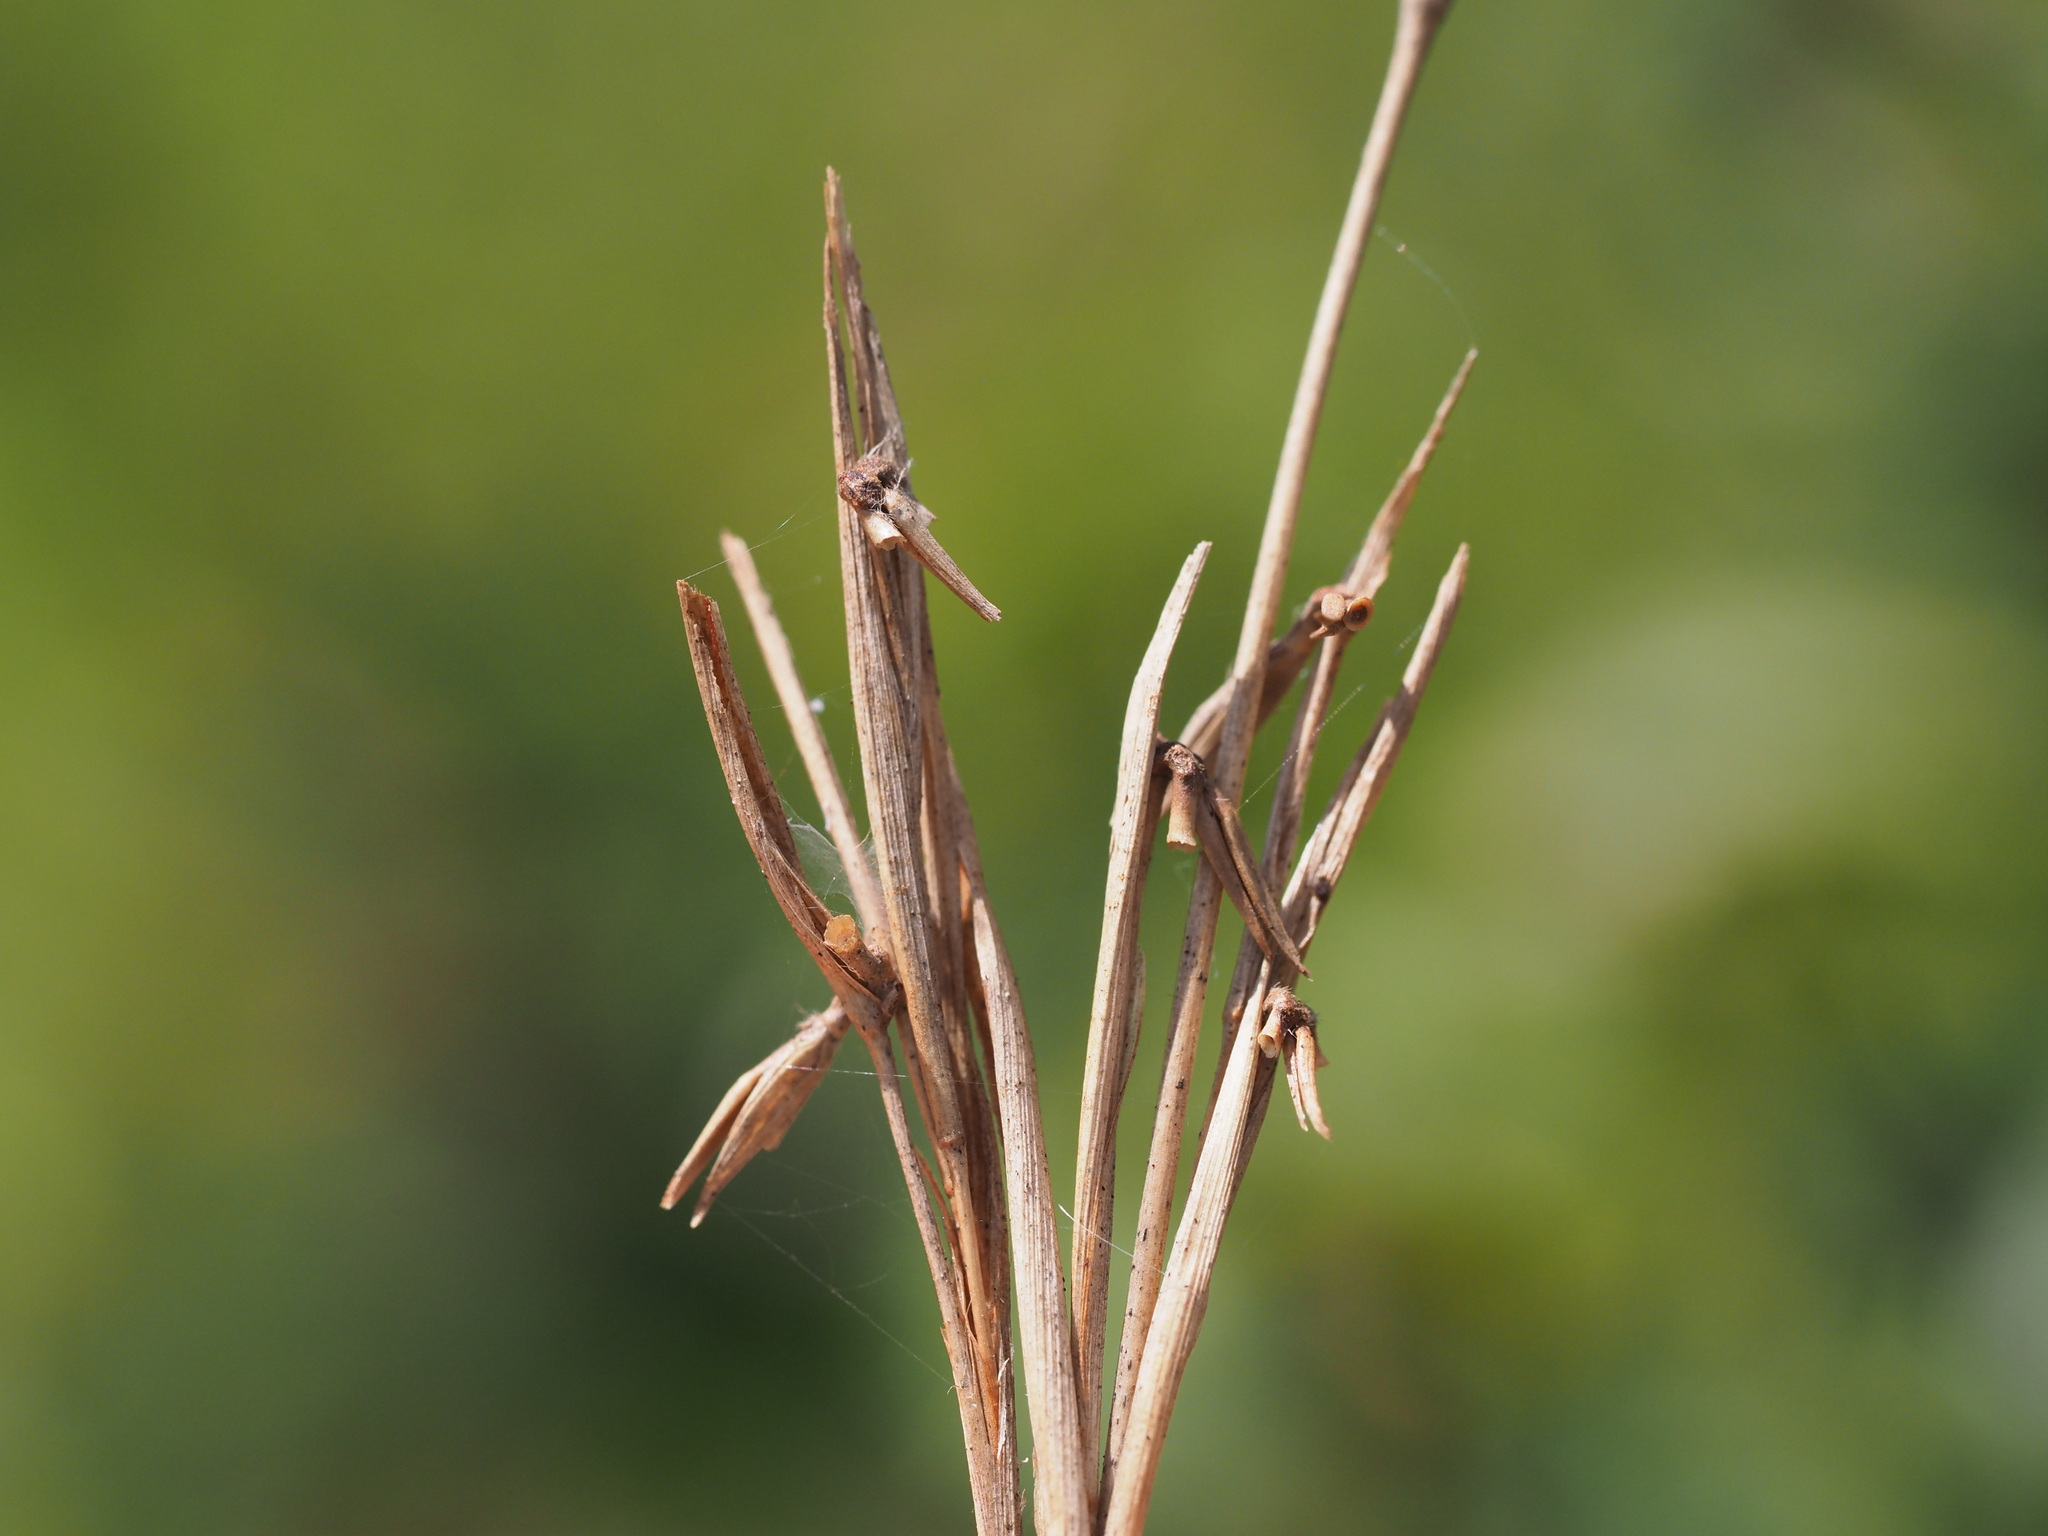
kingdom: Plantae
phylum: Tracheophyta
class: Liliopsida
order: Poales
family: Poaceae
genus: Cymbopogon
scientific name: Cymbopogon refractus
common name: Barbwire grass
